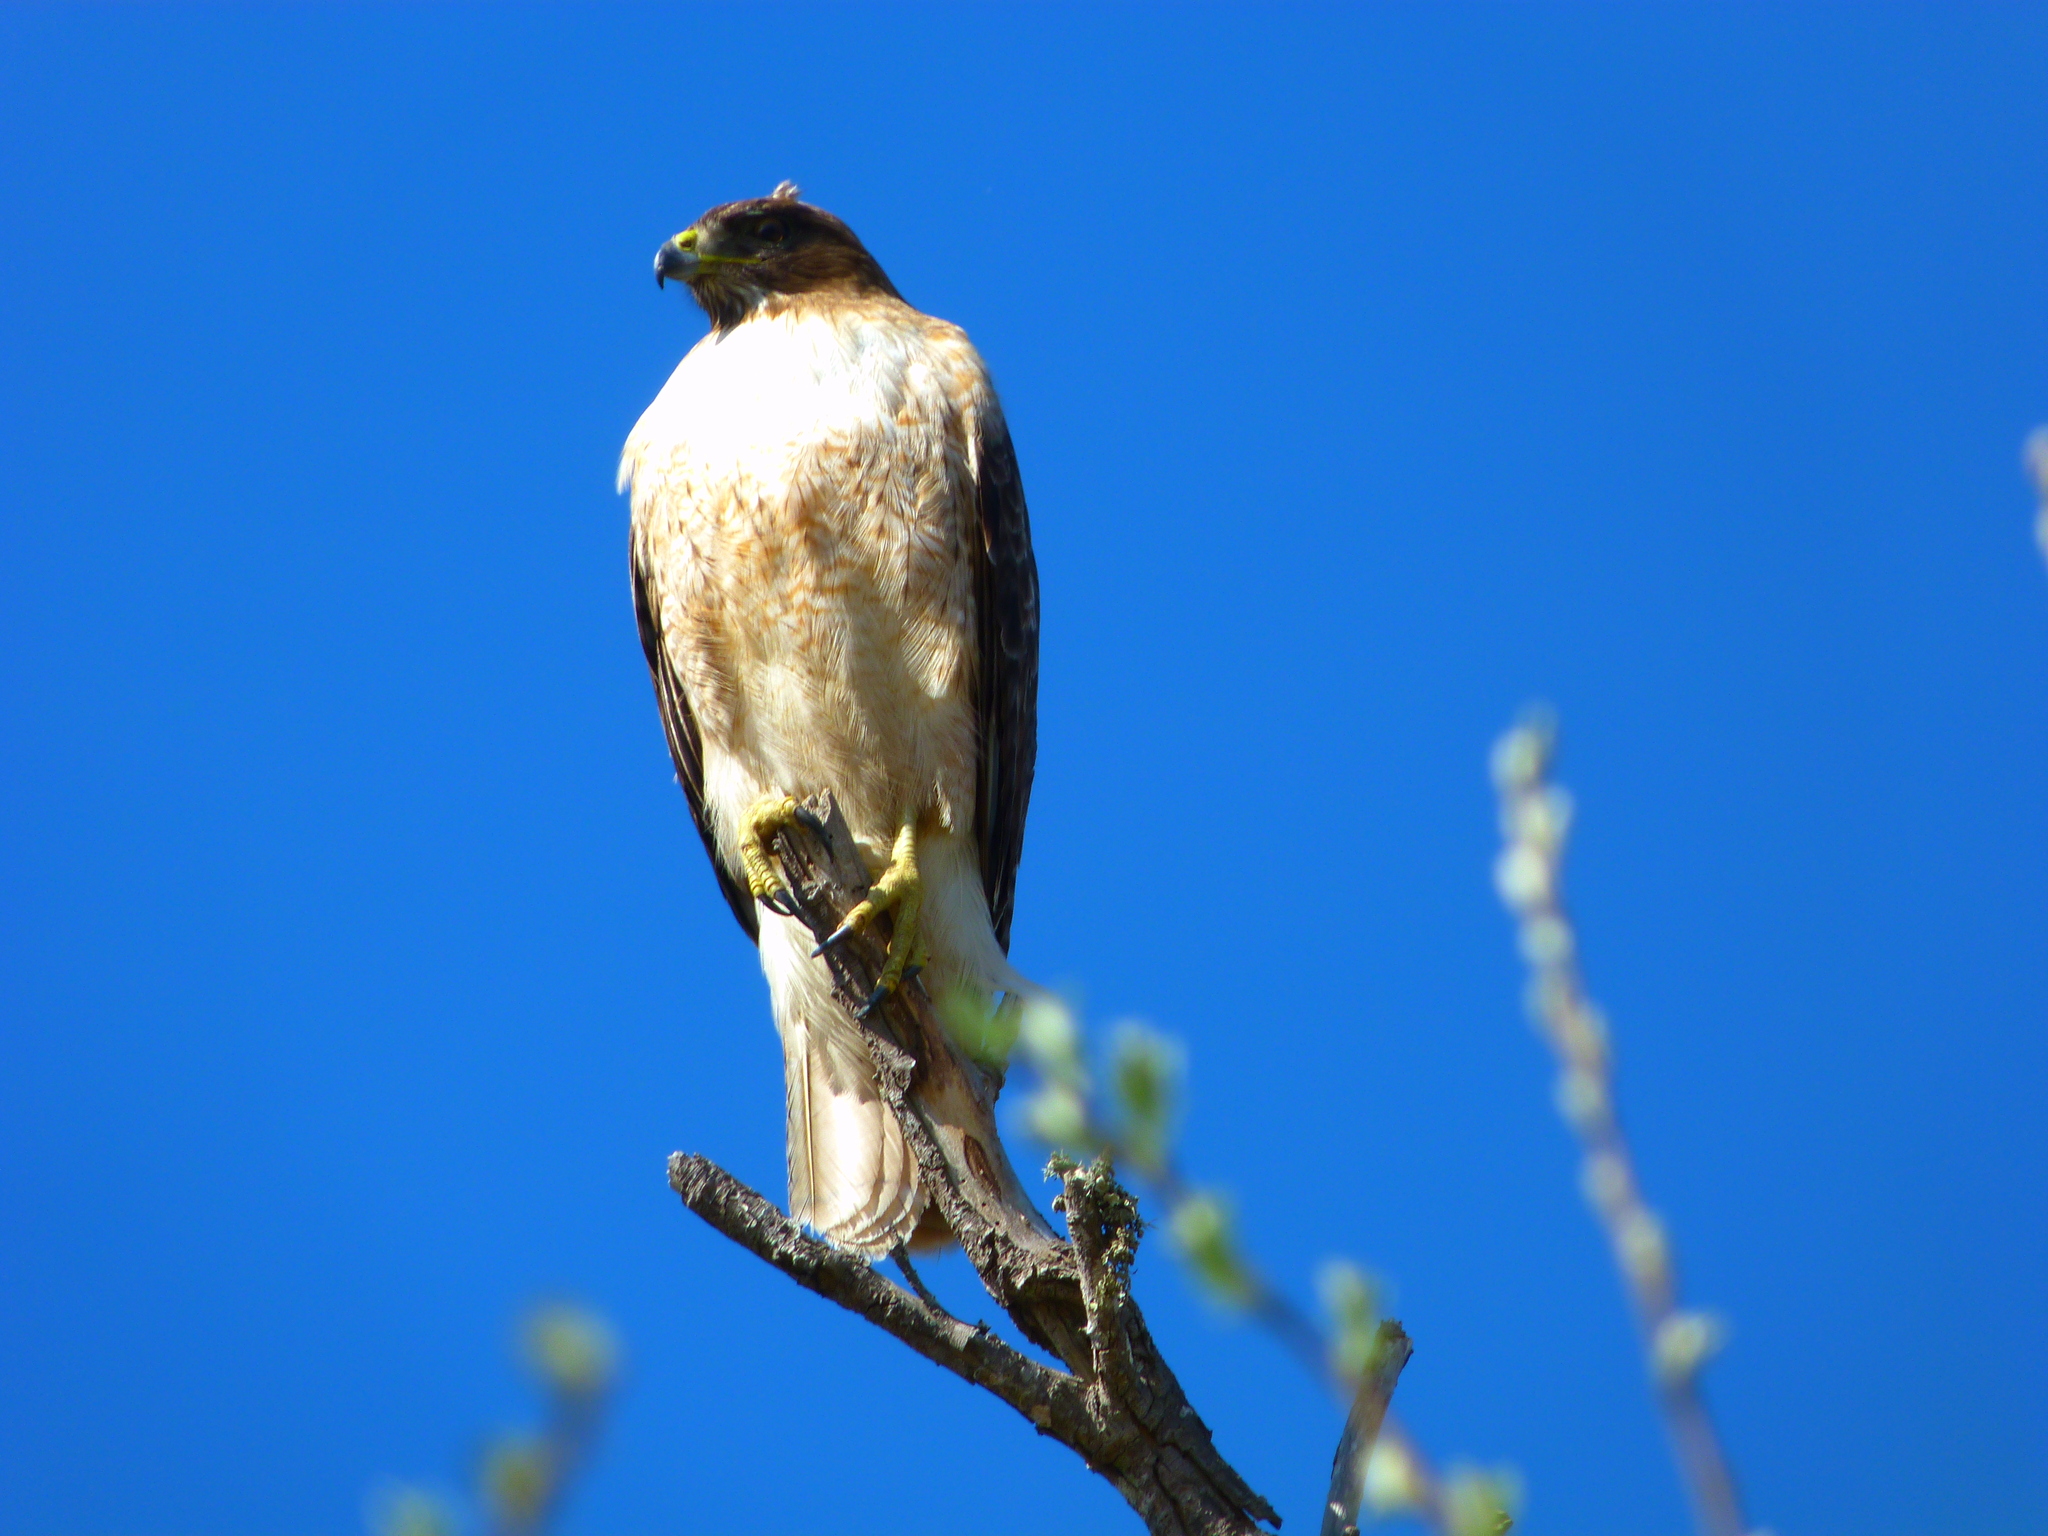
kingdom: Animalia
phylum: Chordata
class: Aves
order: Accipitriformes
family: Accipitridae
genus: Buteo
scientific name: Buteo jamaicensis
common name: Red-tailed hawk
